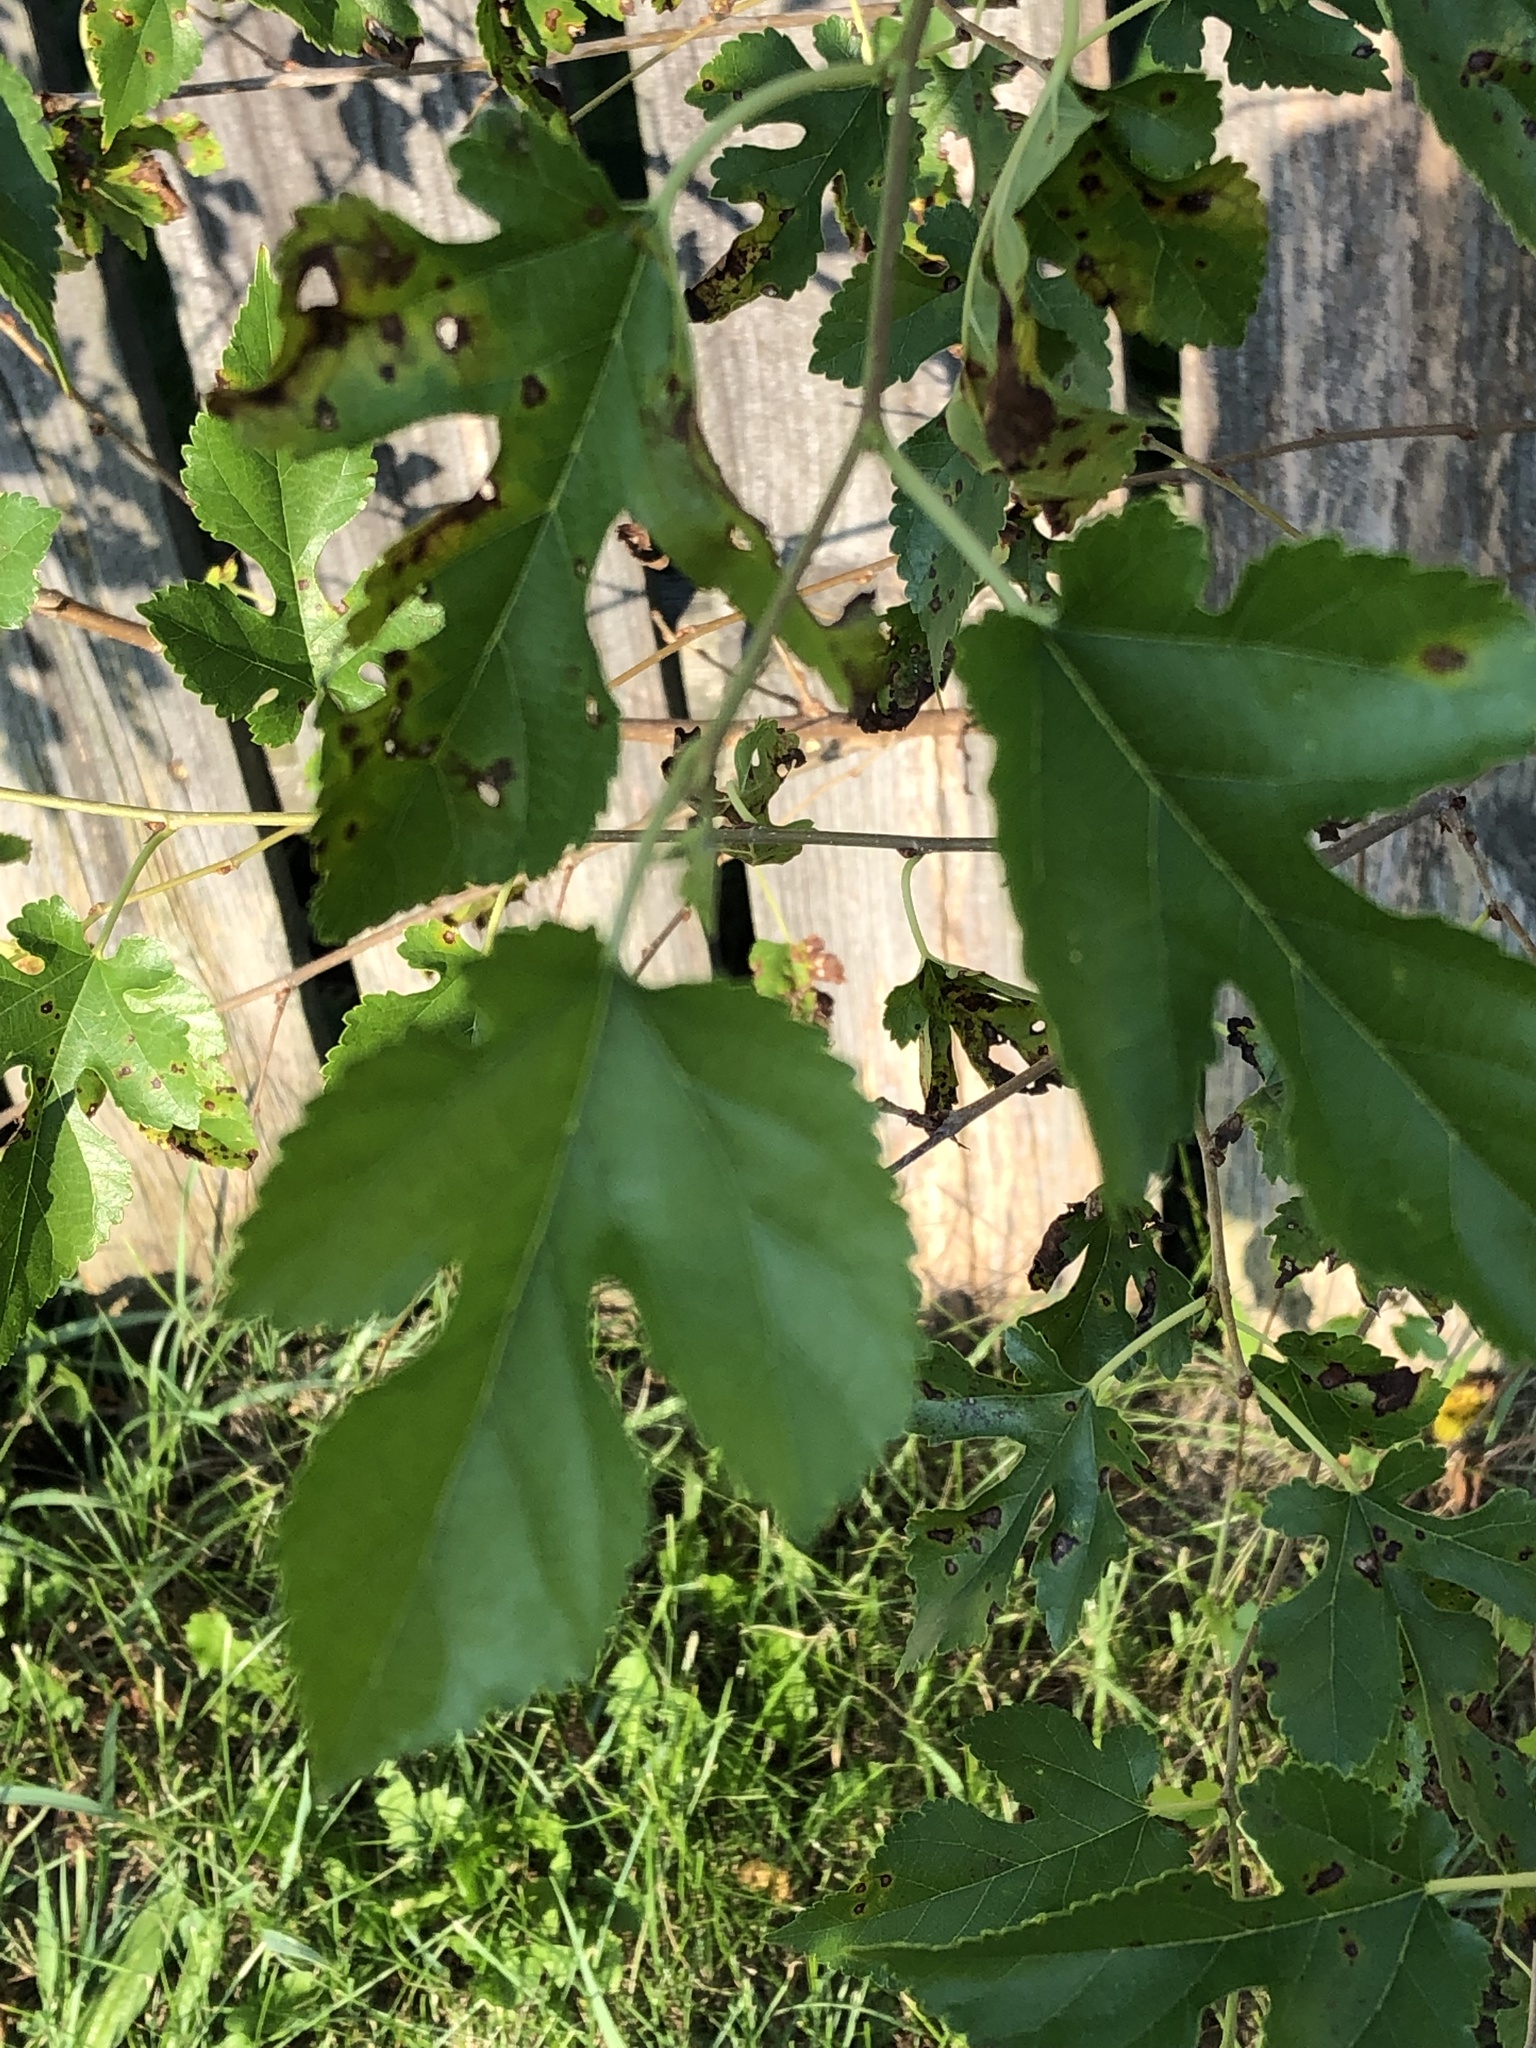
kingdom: Plantae
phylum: Tracheophyta
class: Magnoliopsida
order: Rosales
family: Moraceae
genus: Morus
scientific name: Morus alba
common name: White mulberry
